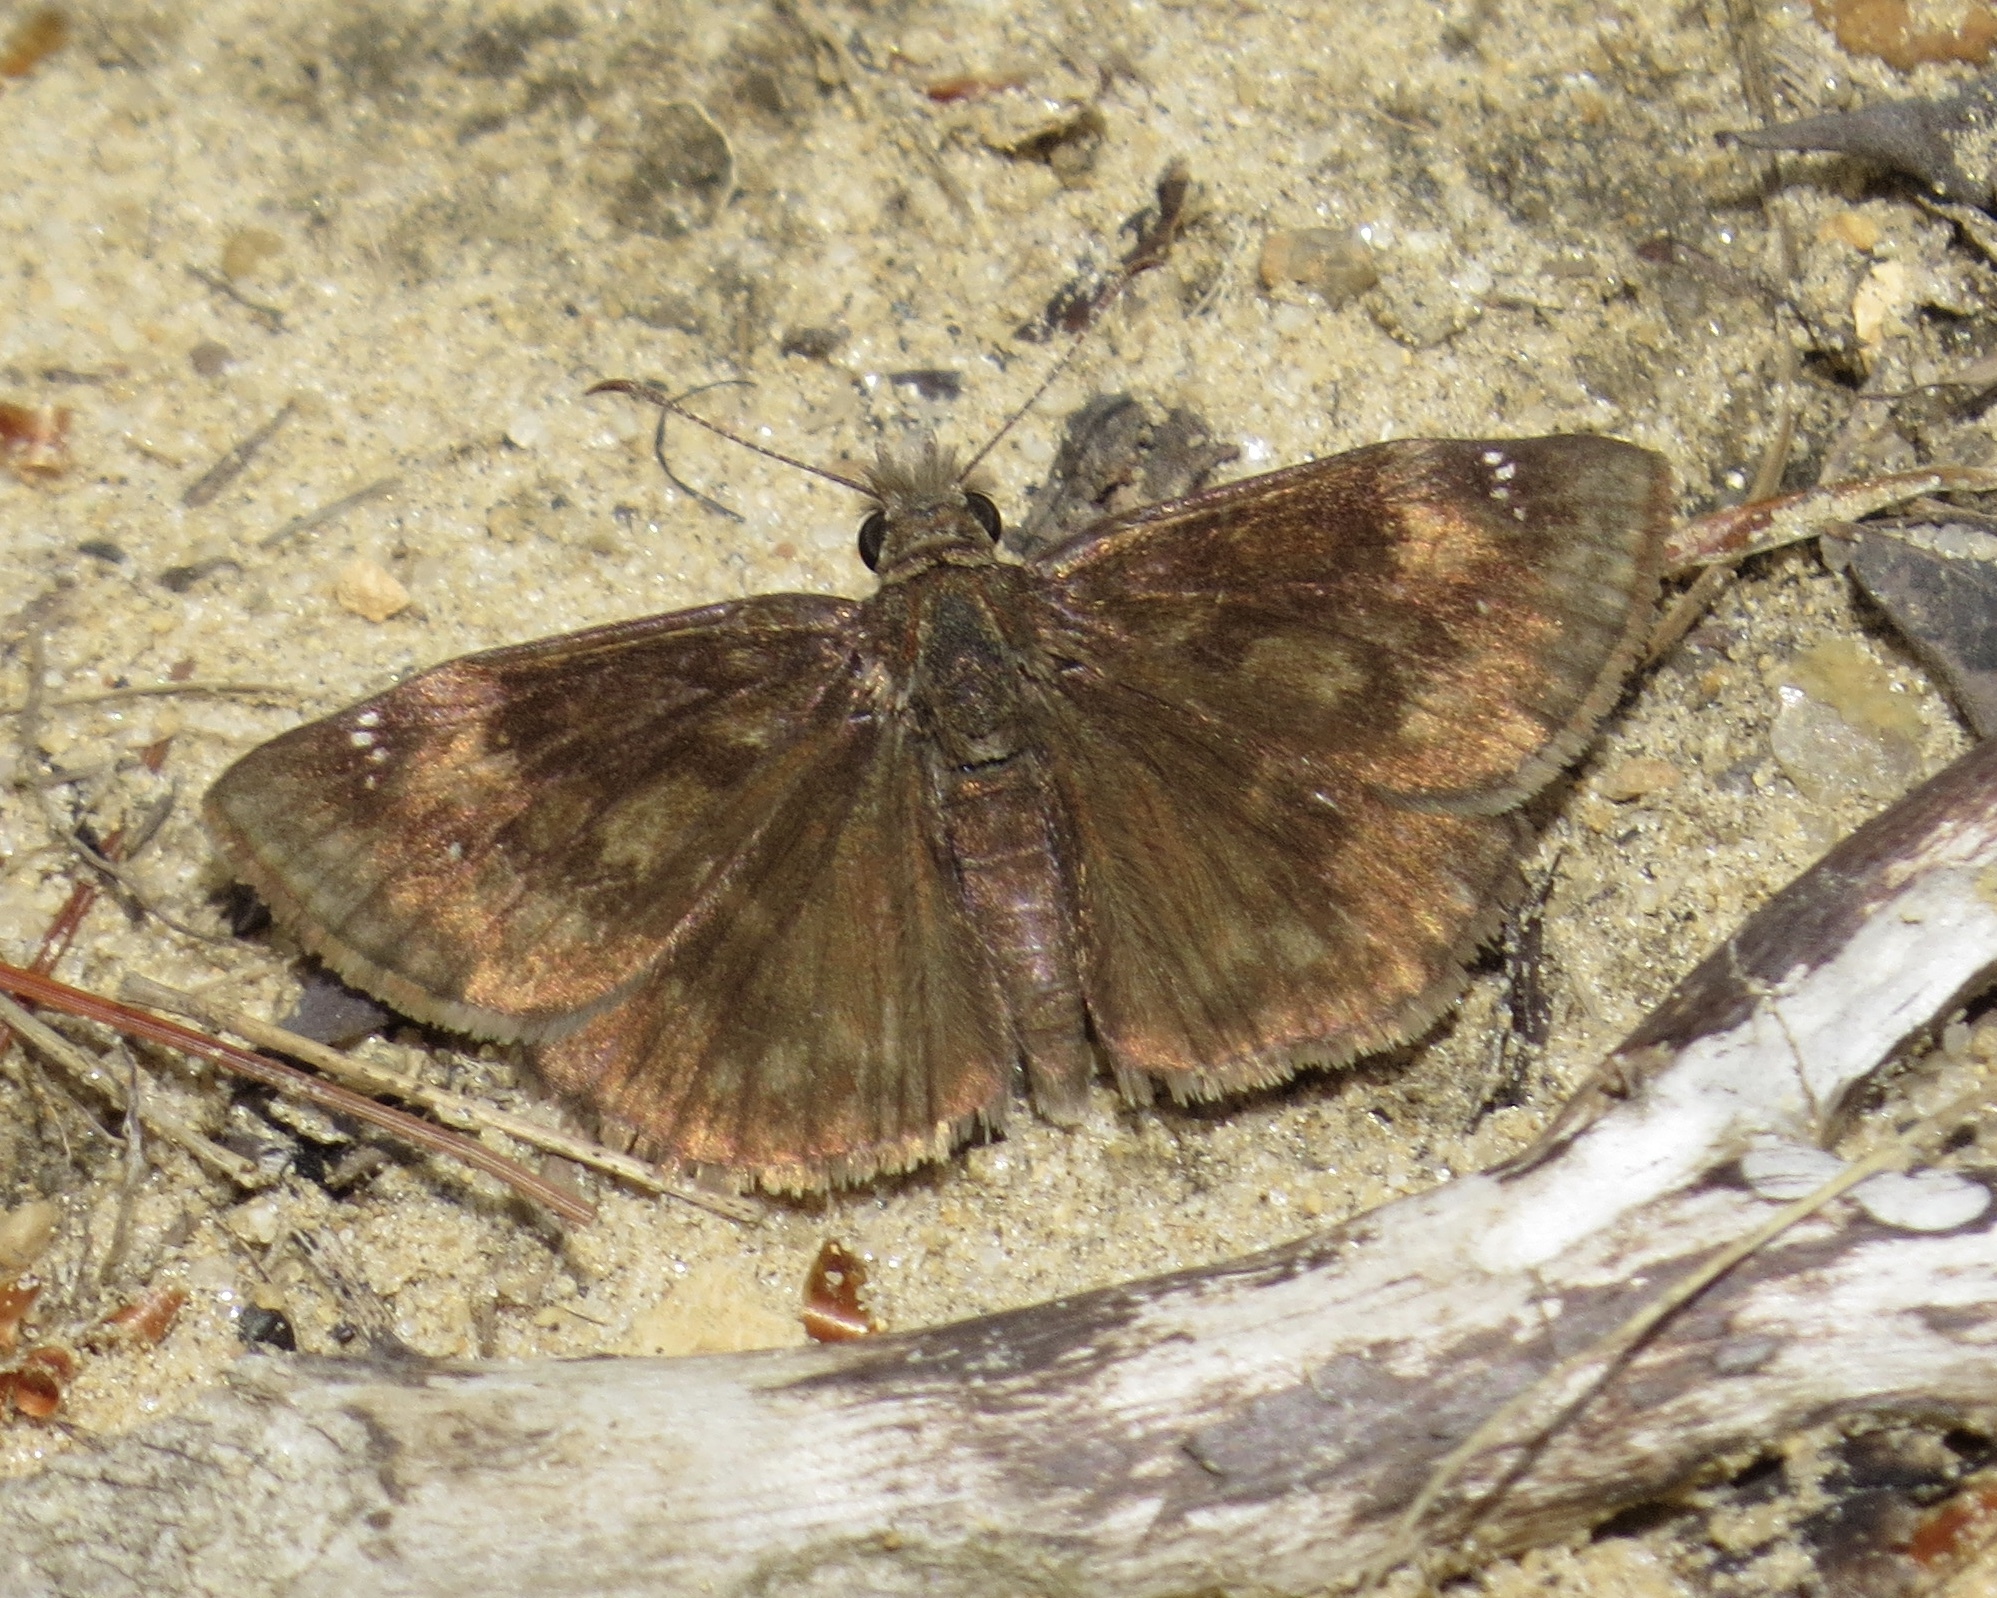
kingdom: Animalia
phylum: Arthropoda
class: Insecta
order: Lepidoptera
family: Hesperiidae
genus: Erynnis
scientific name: Erynnis baptisiae
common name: Wild indigo duskywing
